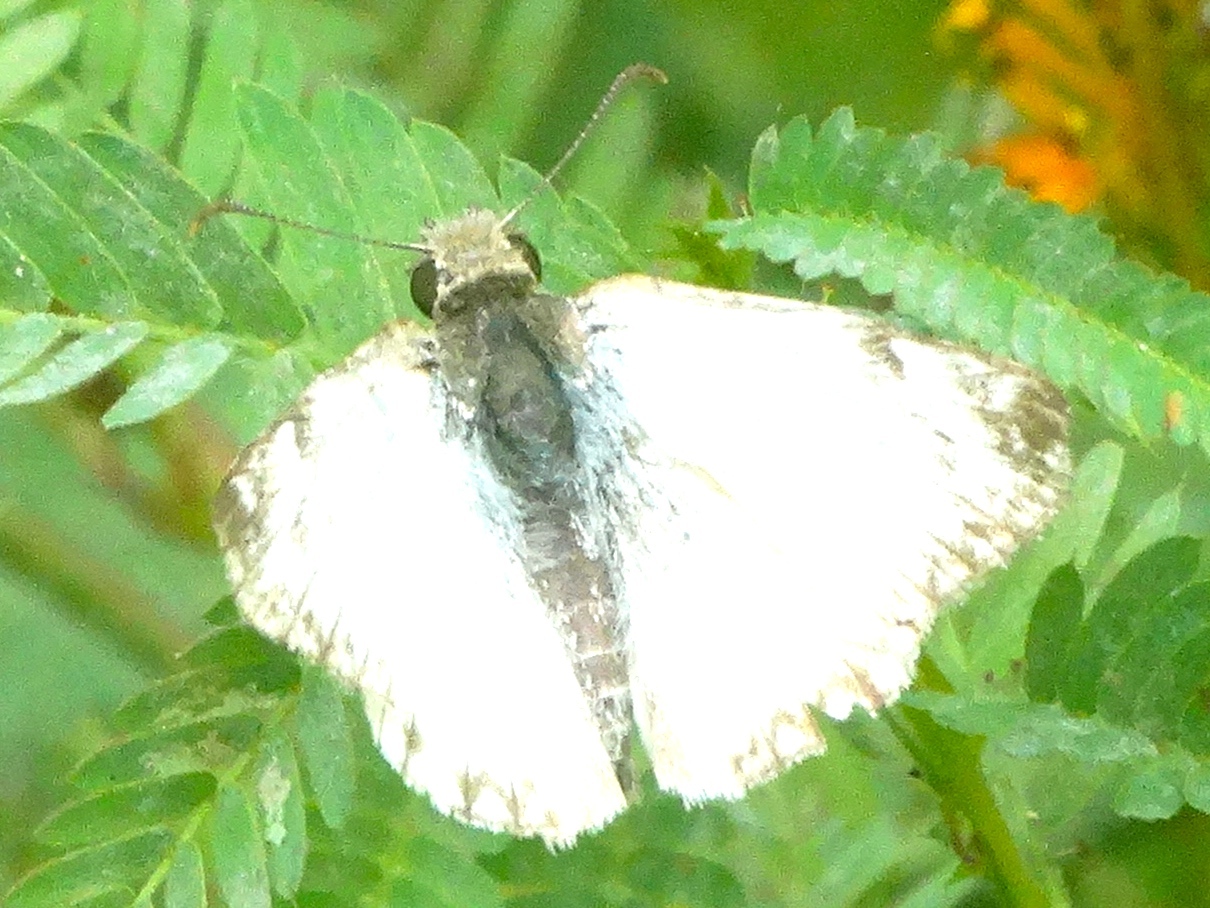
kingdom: Animalia
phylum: Arthropoda
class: Insecta
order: Lepidoptera
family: Hesperiidae
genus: Heliopetes
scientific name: Heliopetes laviana
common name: Laviana white-skipper
